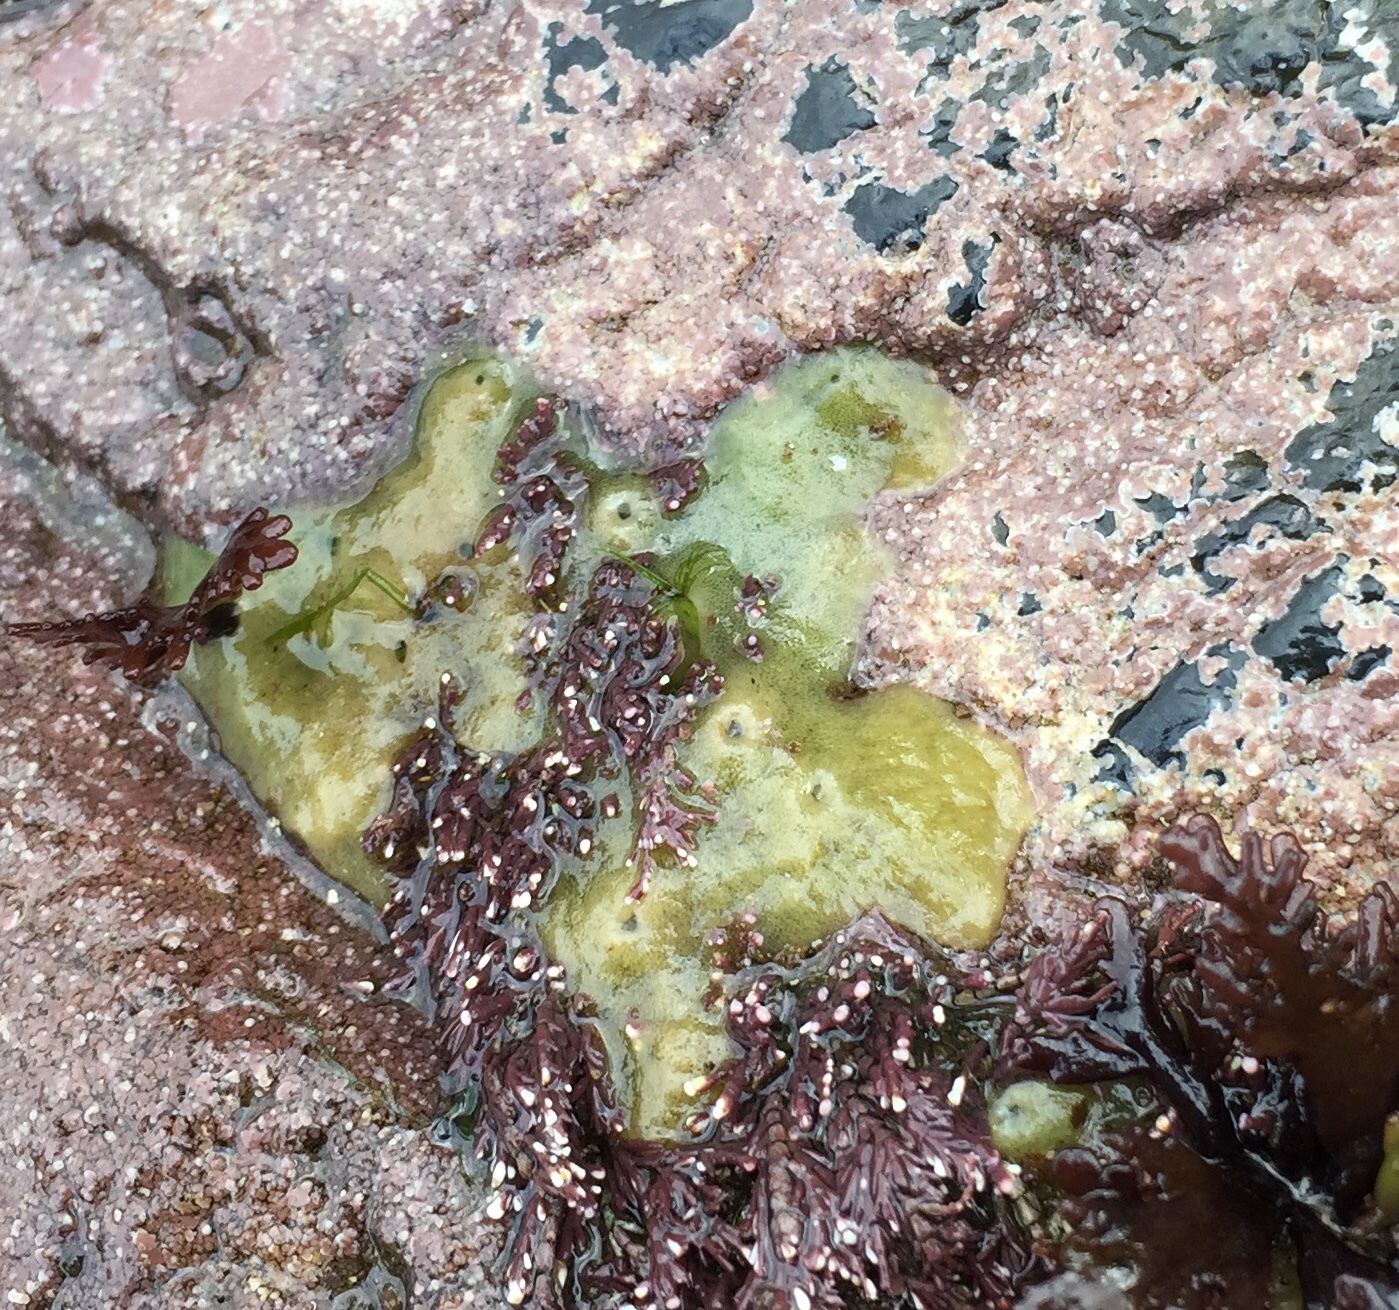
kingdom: Animalia
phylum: Porifera
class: Demospongiae
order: Suberitida
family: Halichondriidae
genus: Halichondria
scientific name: Halichondria panicea
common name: Breadcrumb sponge
